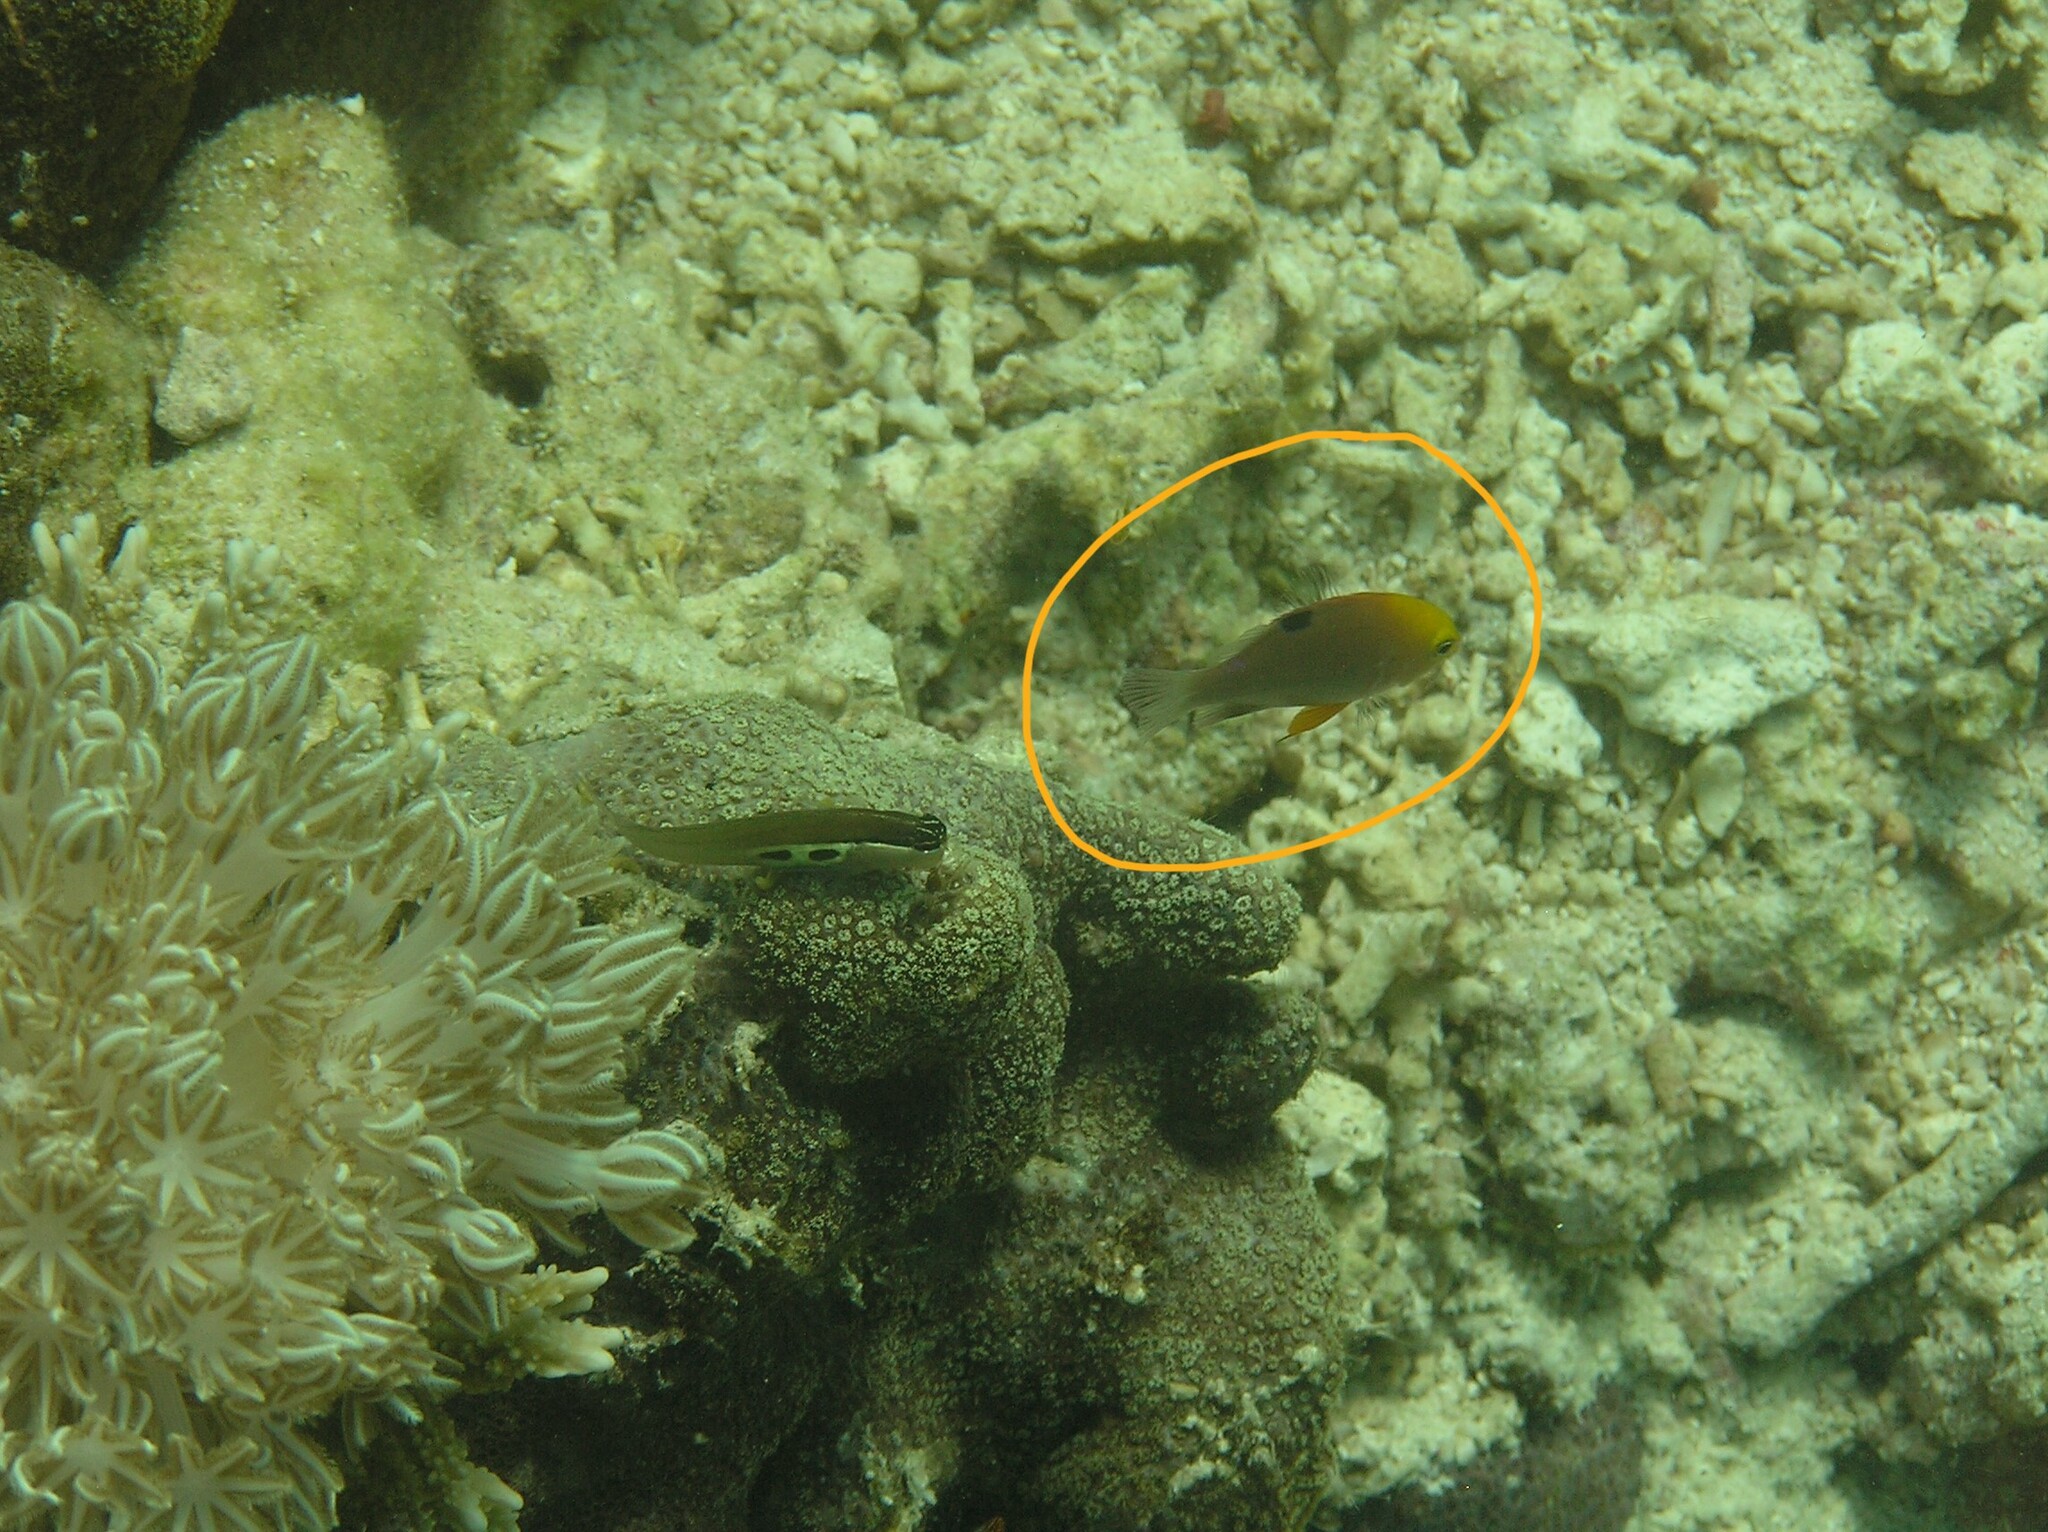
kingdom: Animalia
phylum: Chordata
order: Perciformes
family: Pomacentridae
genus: Chrysiptera
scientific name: Chrysiptera talboti
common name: Talbot's demoiselle
